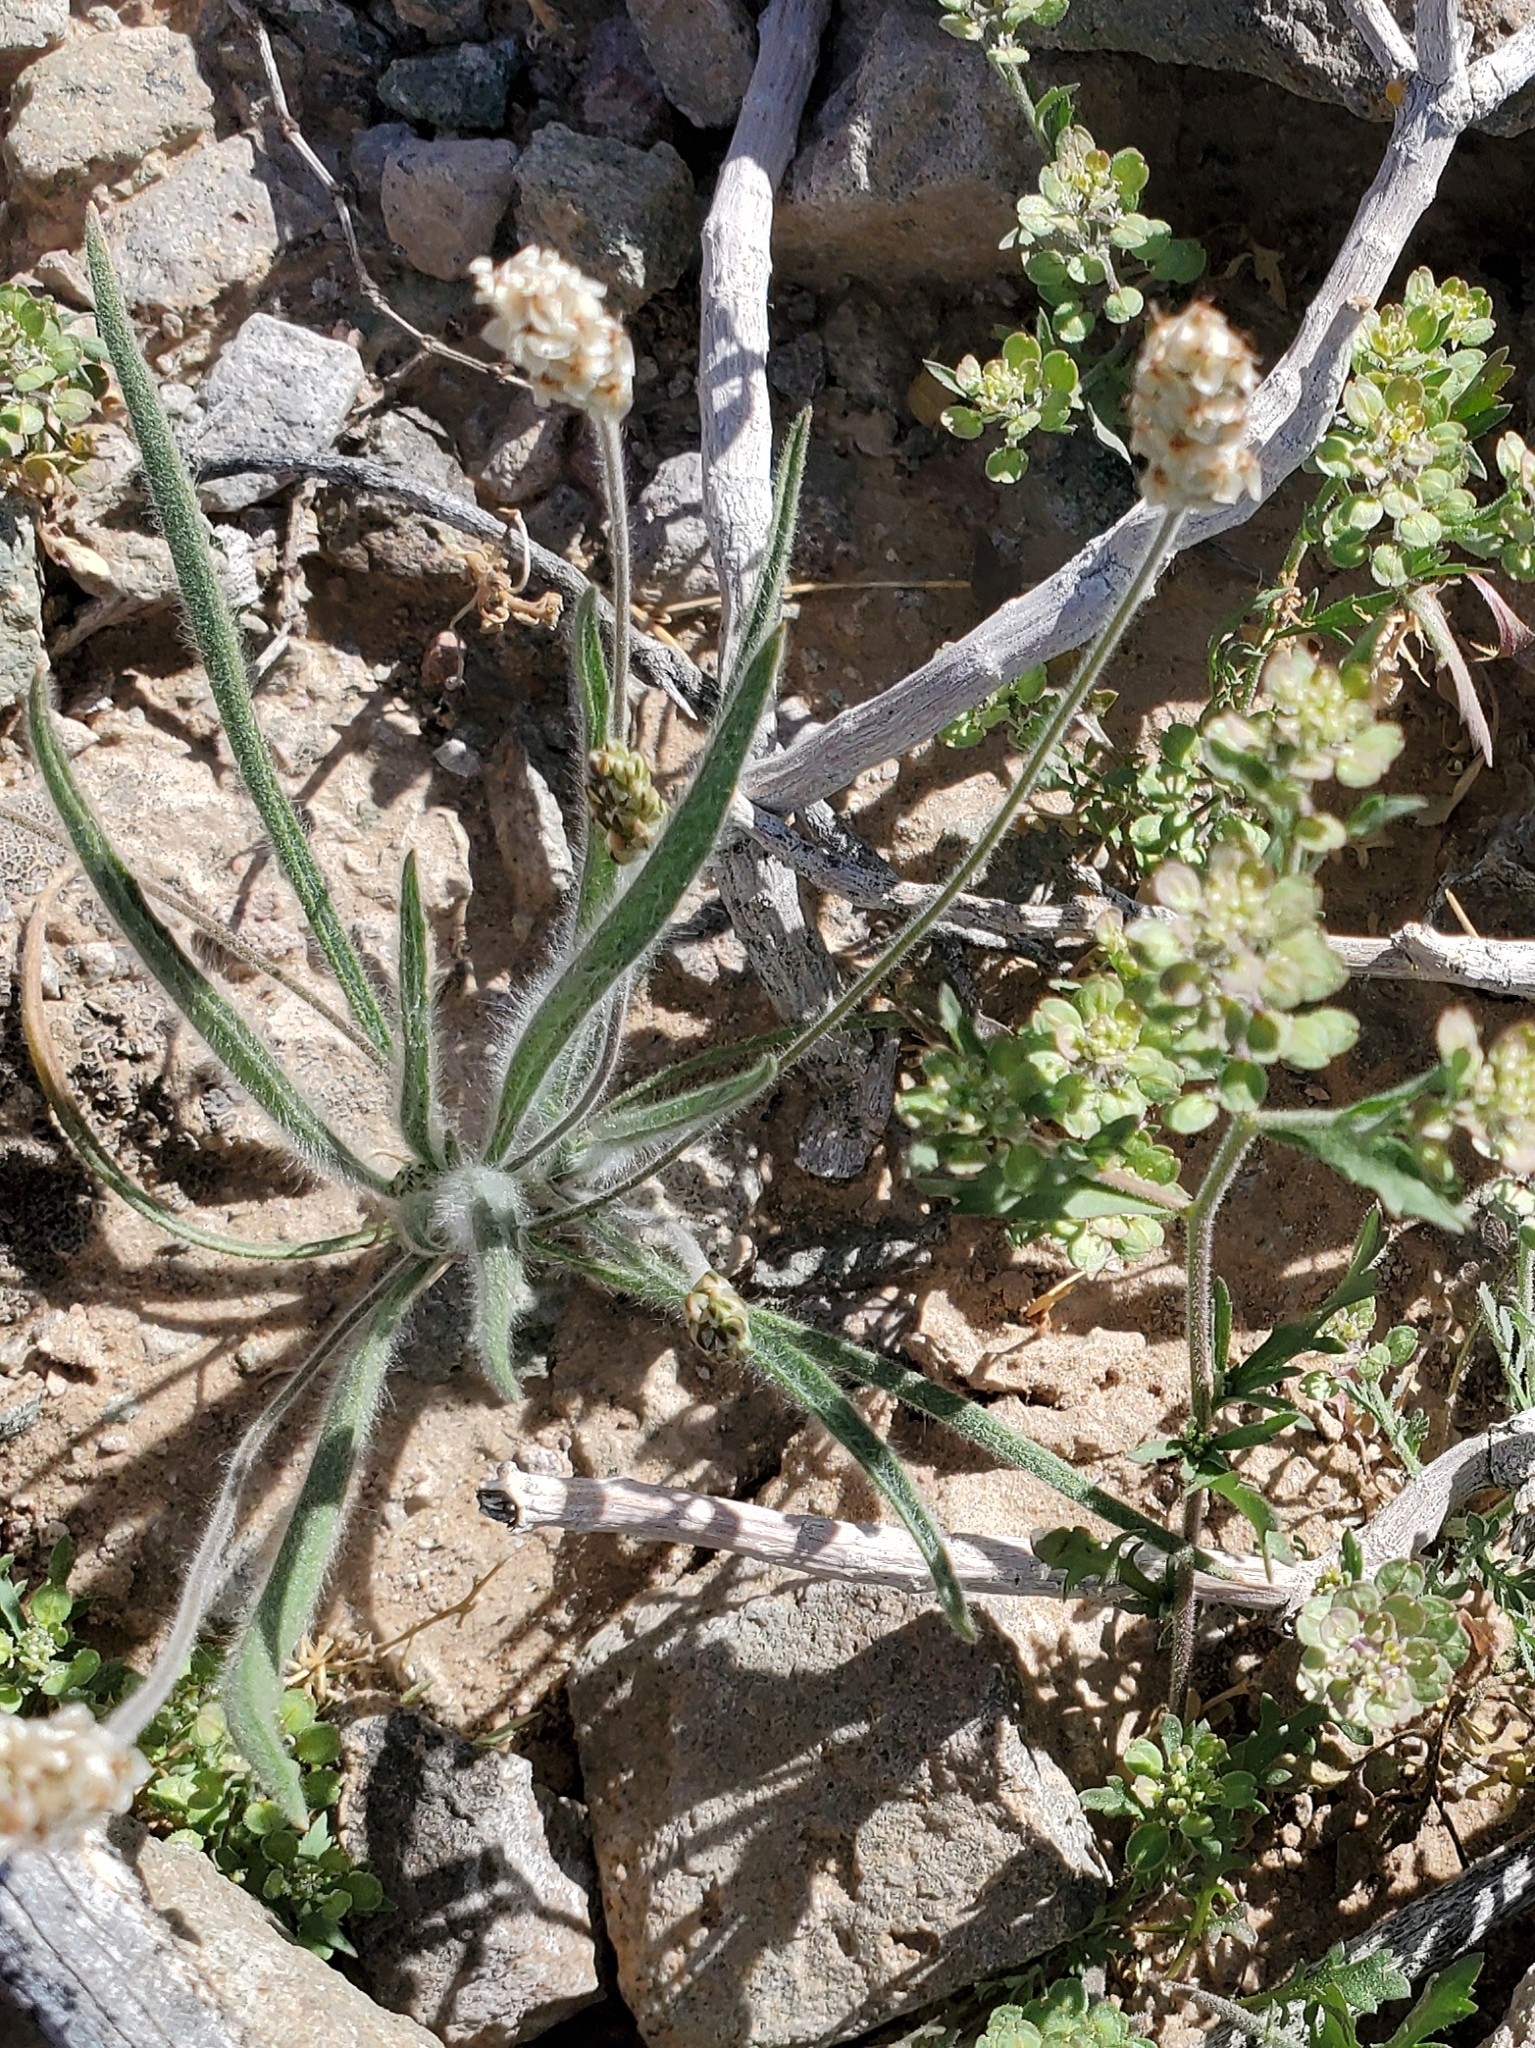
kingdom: Plantae
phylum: Tracheophyta
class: Magnoliopsida
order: Lamiales
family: Plantaginaceae
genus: Plantago
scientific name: Plantago ovata
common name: Blond plantain
